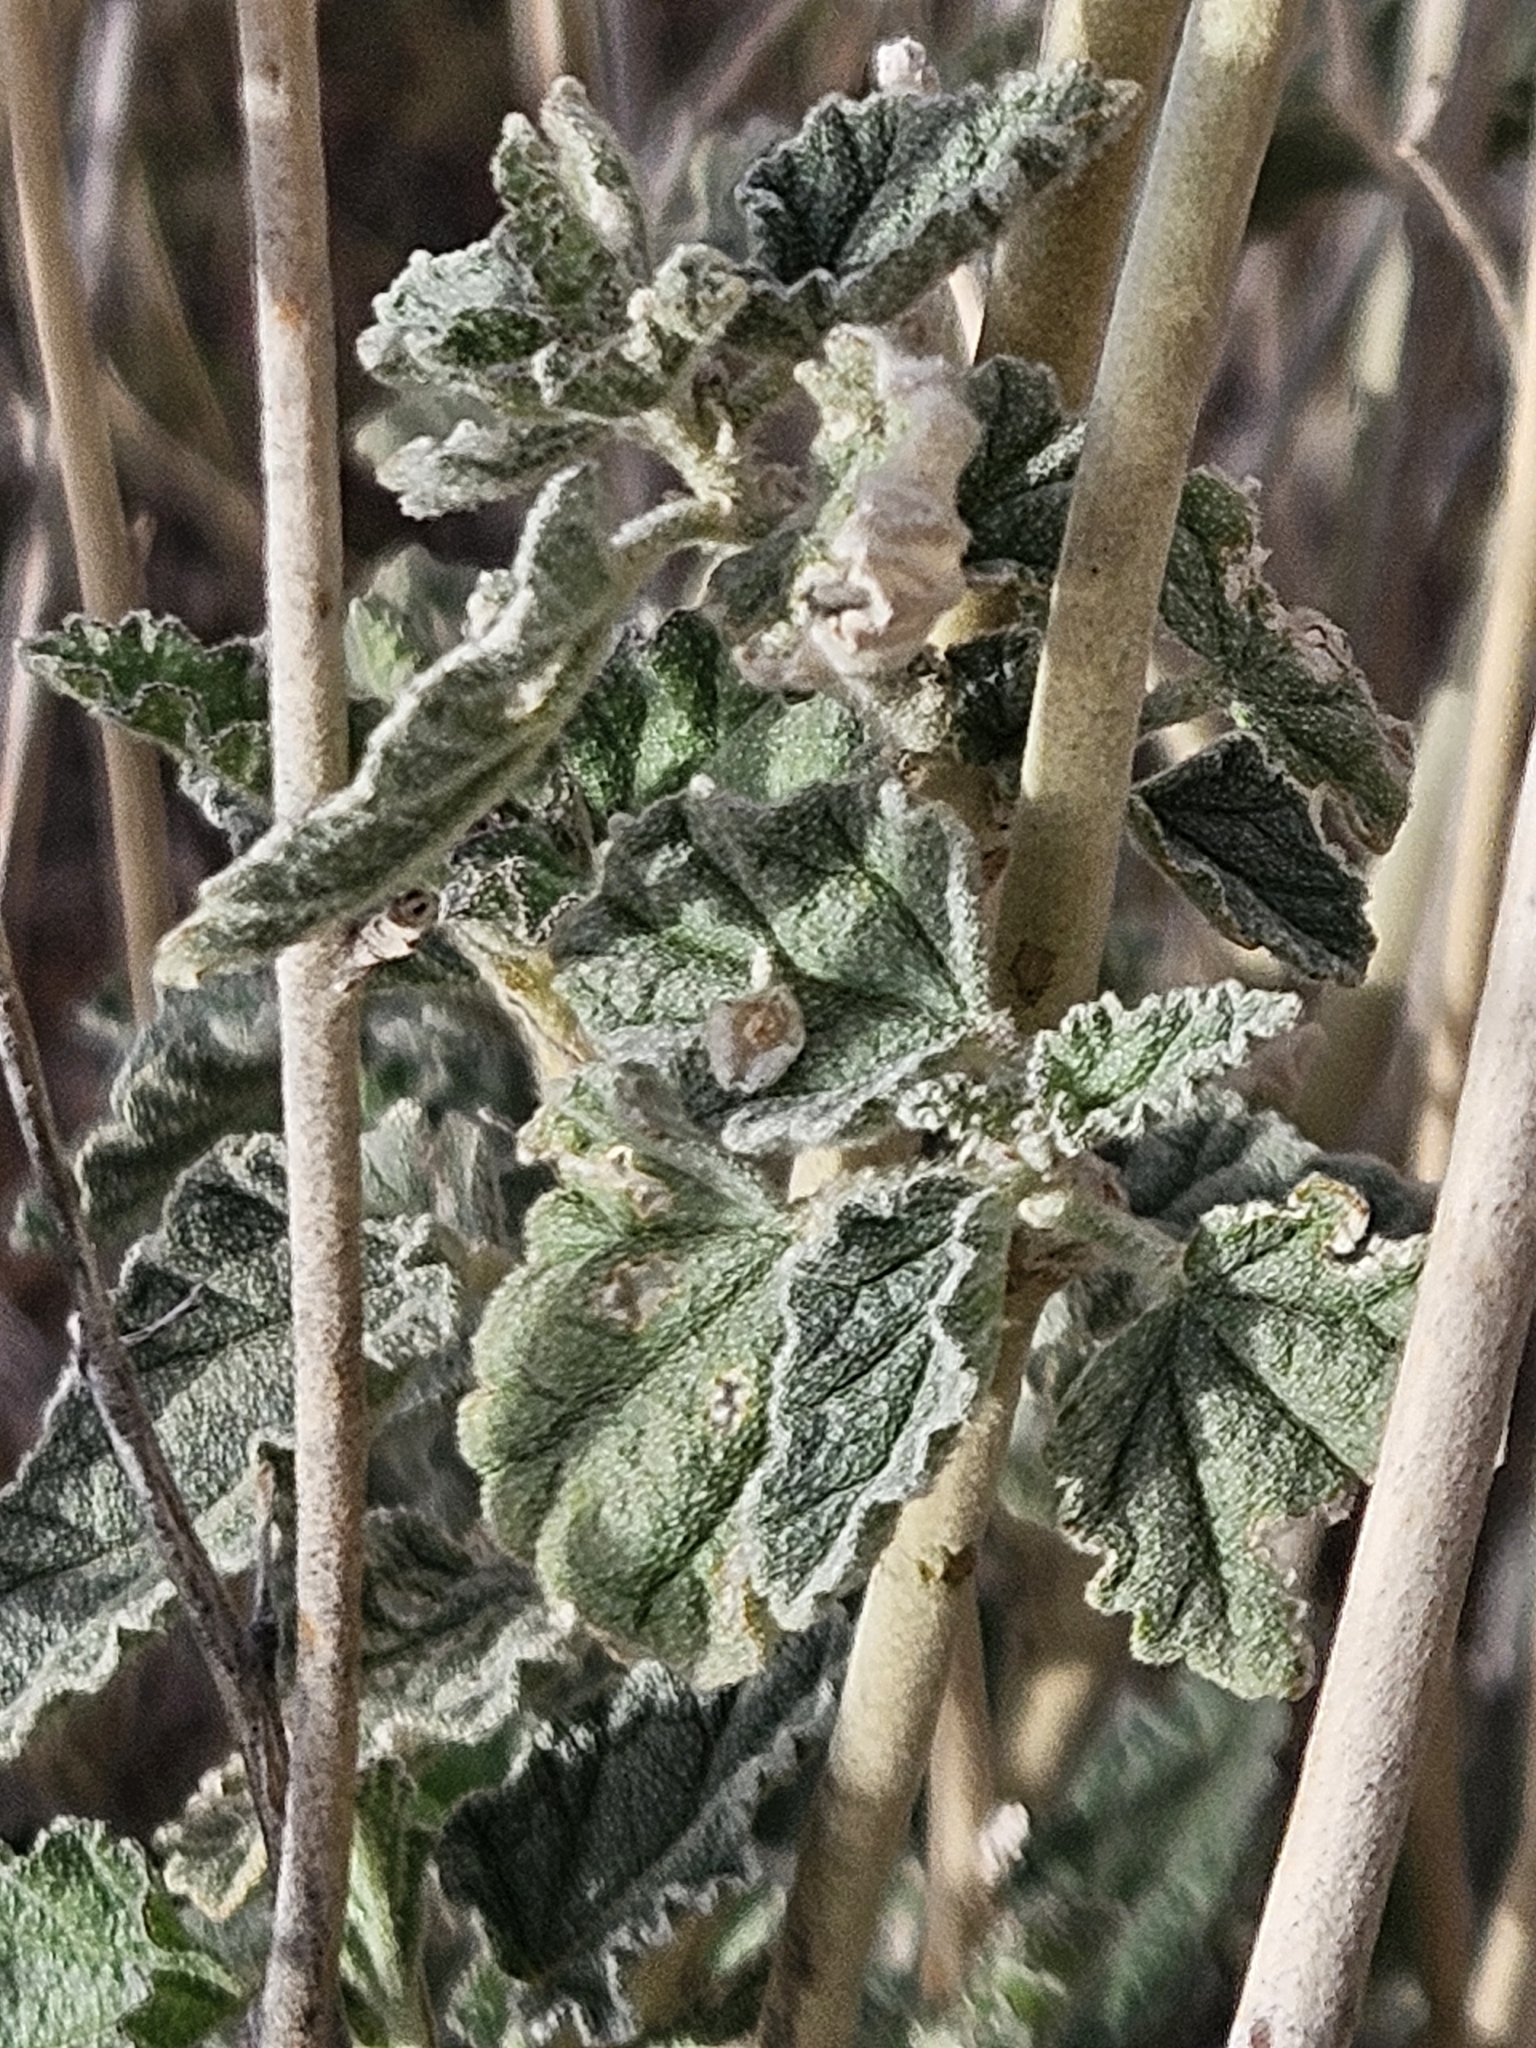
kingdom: Plantae
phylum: Tracheophyta
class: Magnoliopsida
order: Malvales
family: Malvaceae
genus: Sphaeralcea
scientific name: Sphaeralcea parvifolia
